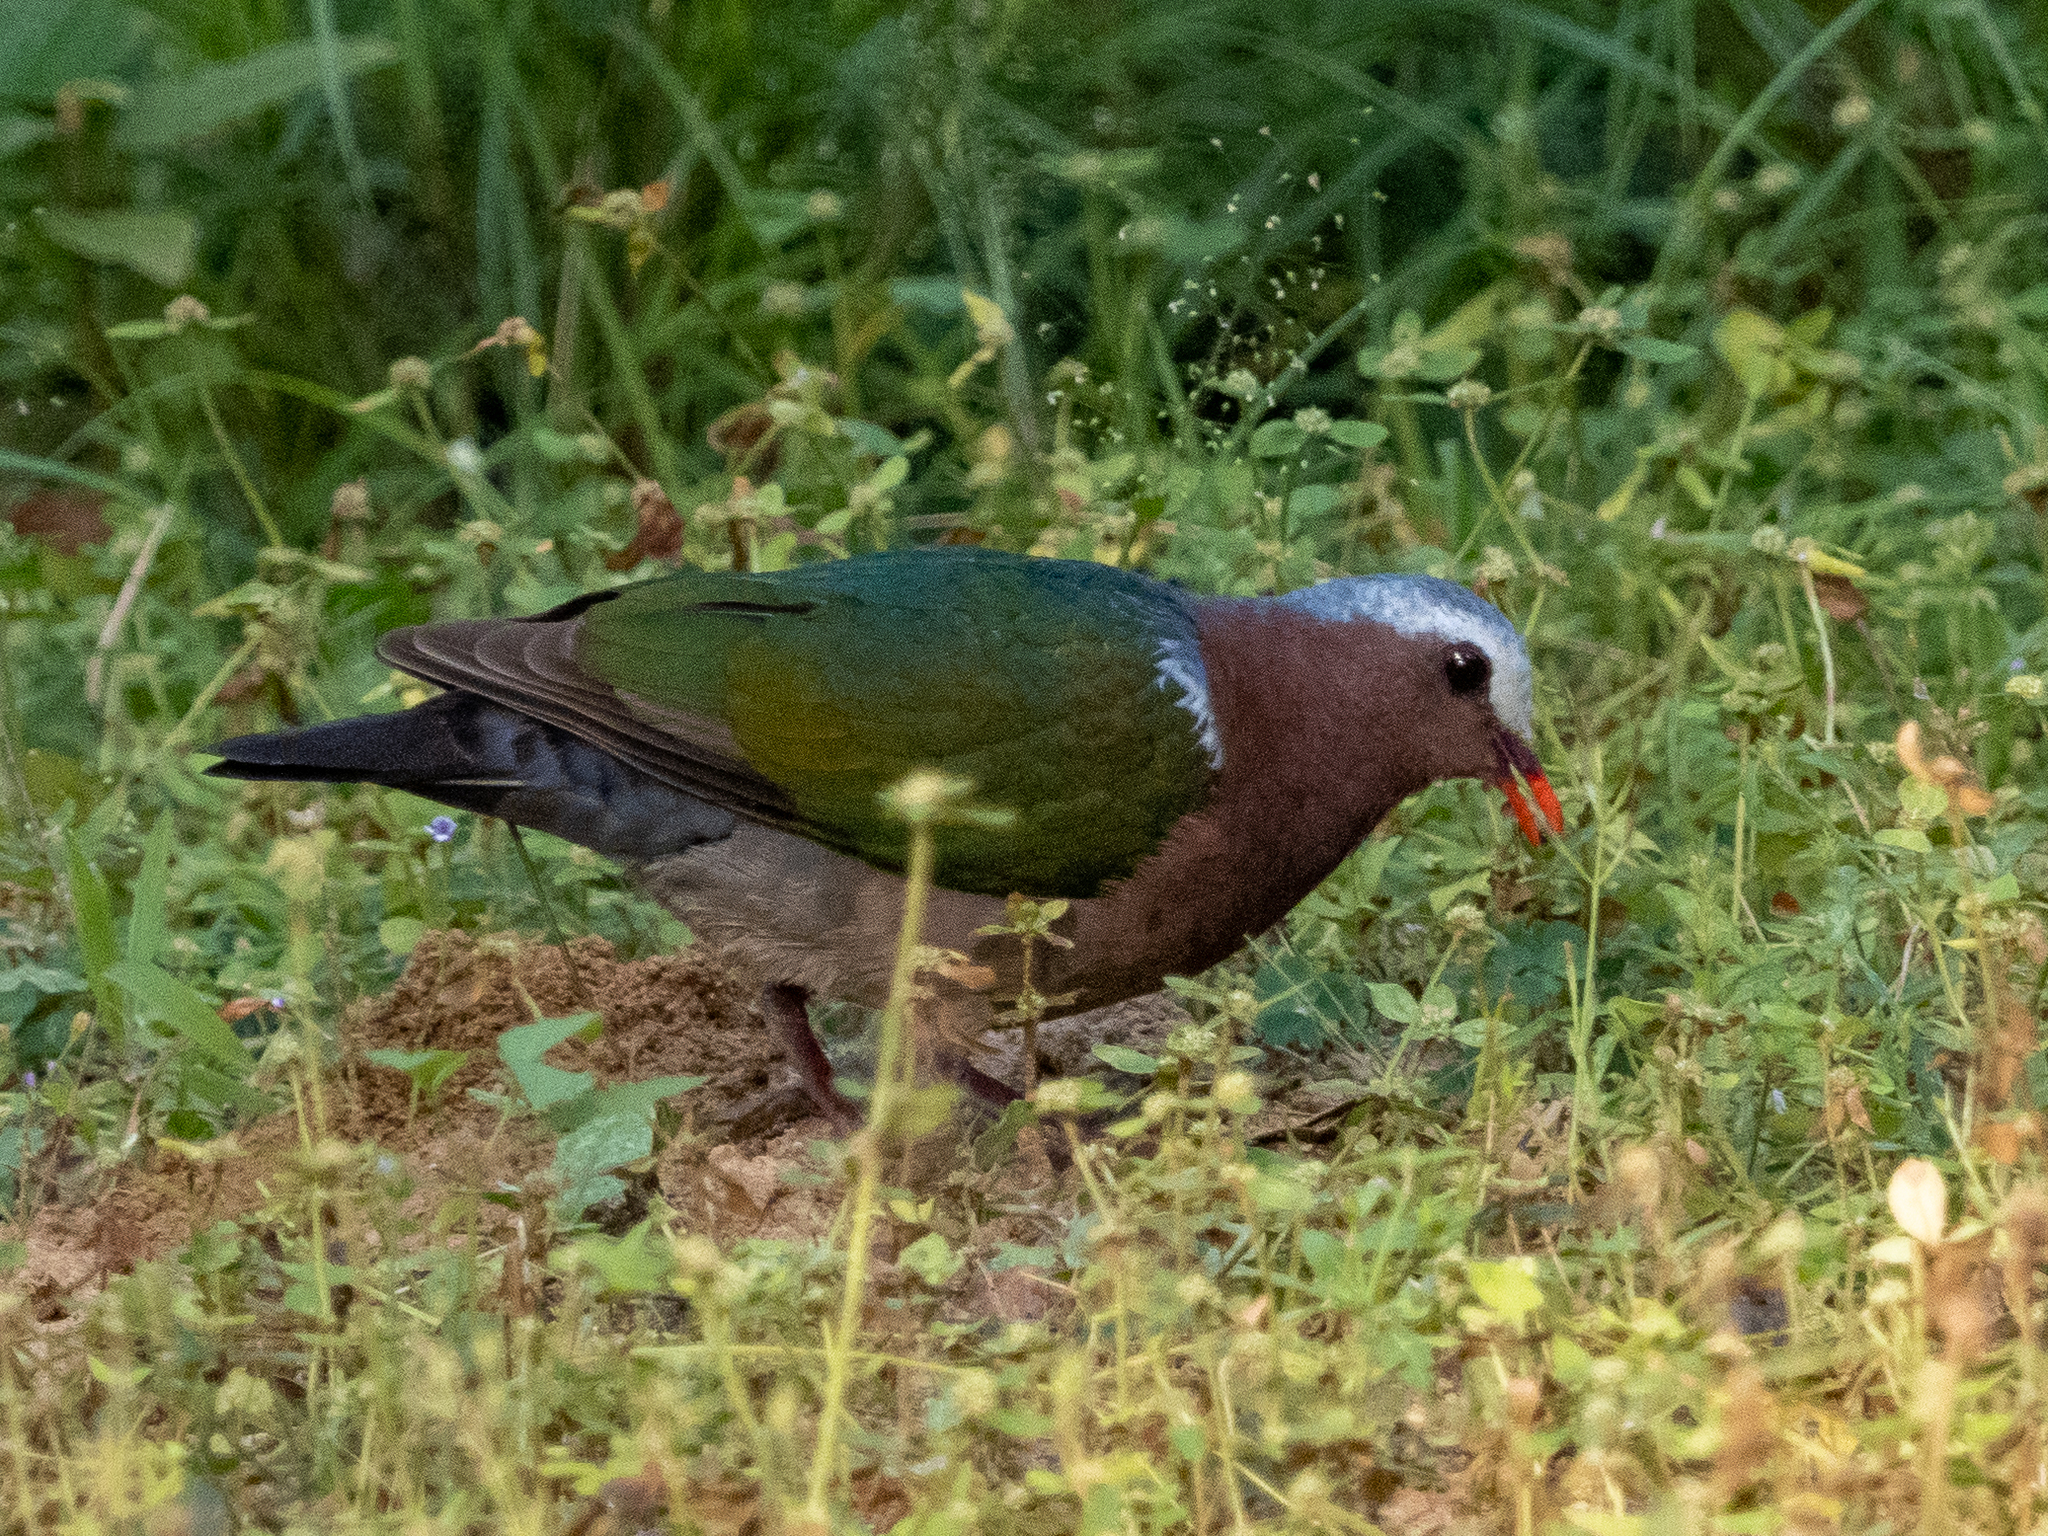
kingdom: Animalia
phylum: Chordata
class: Aves
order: Columbiformes
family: Columbidae
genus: Chalcophaps
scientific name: Chalcophaps indica
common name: Common emerald dove
